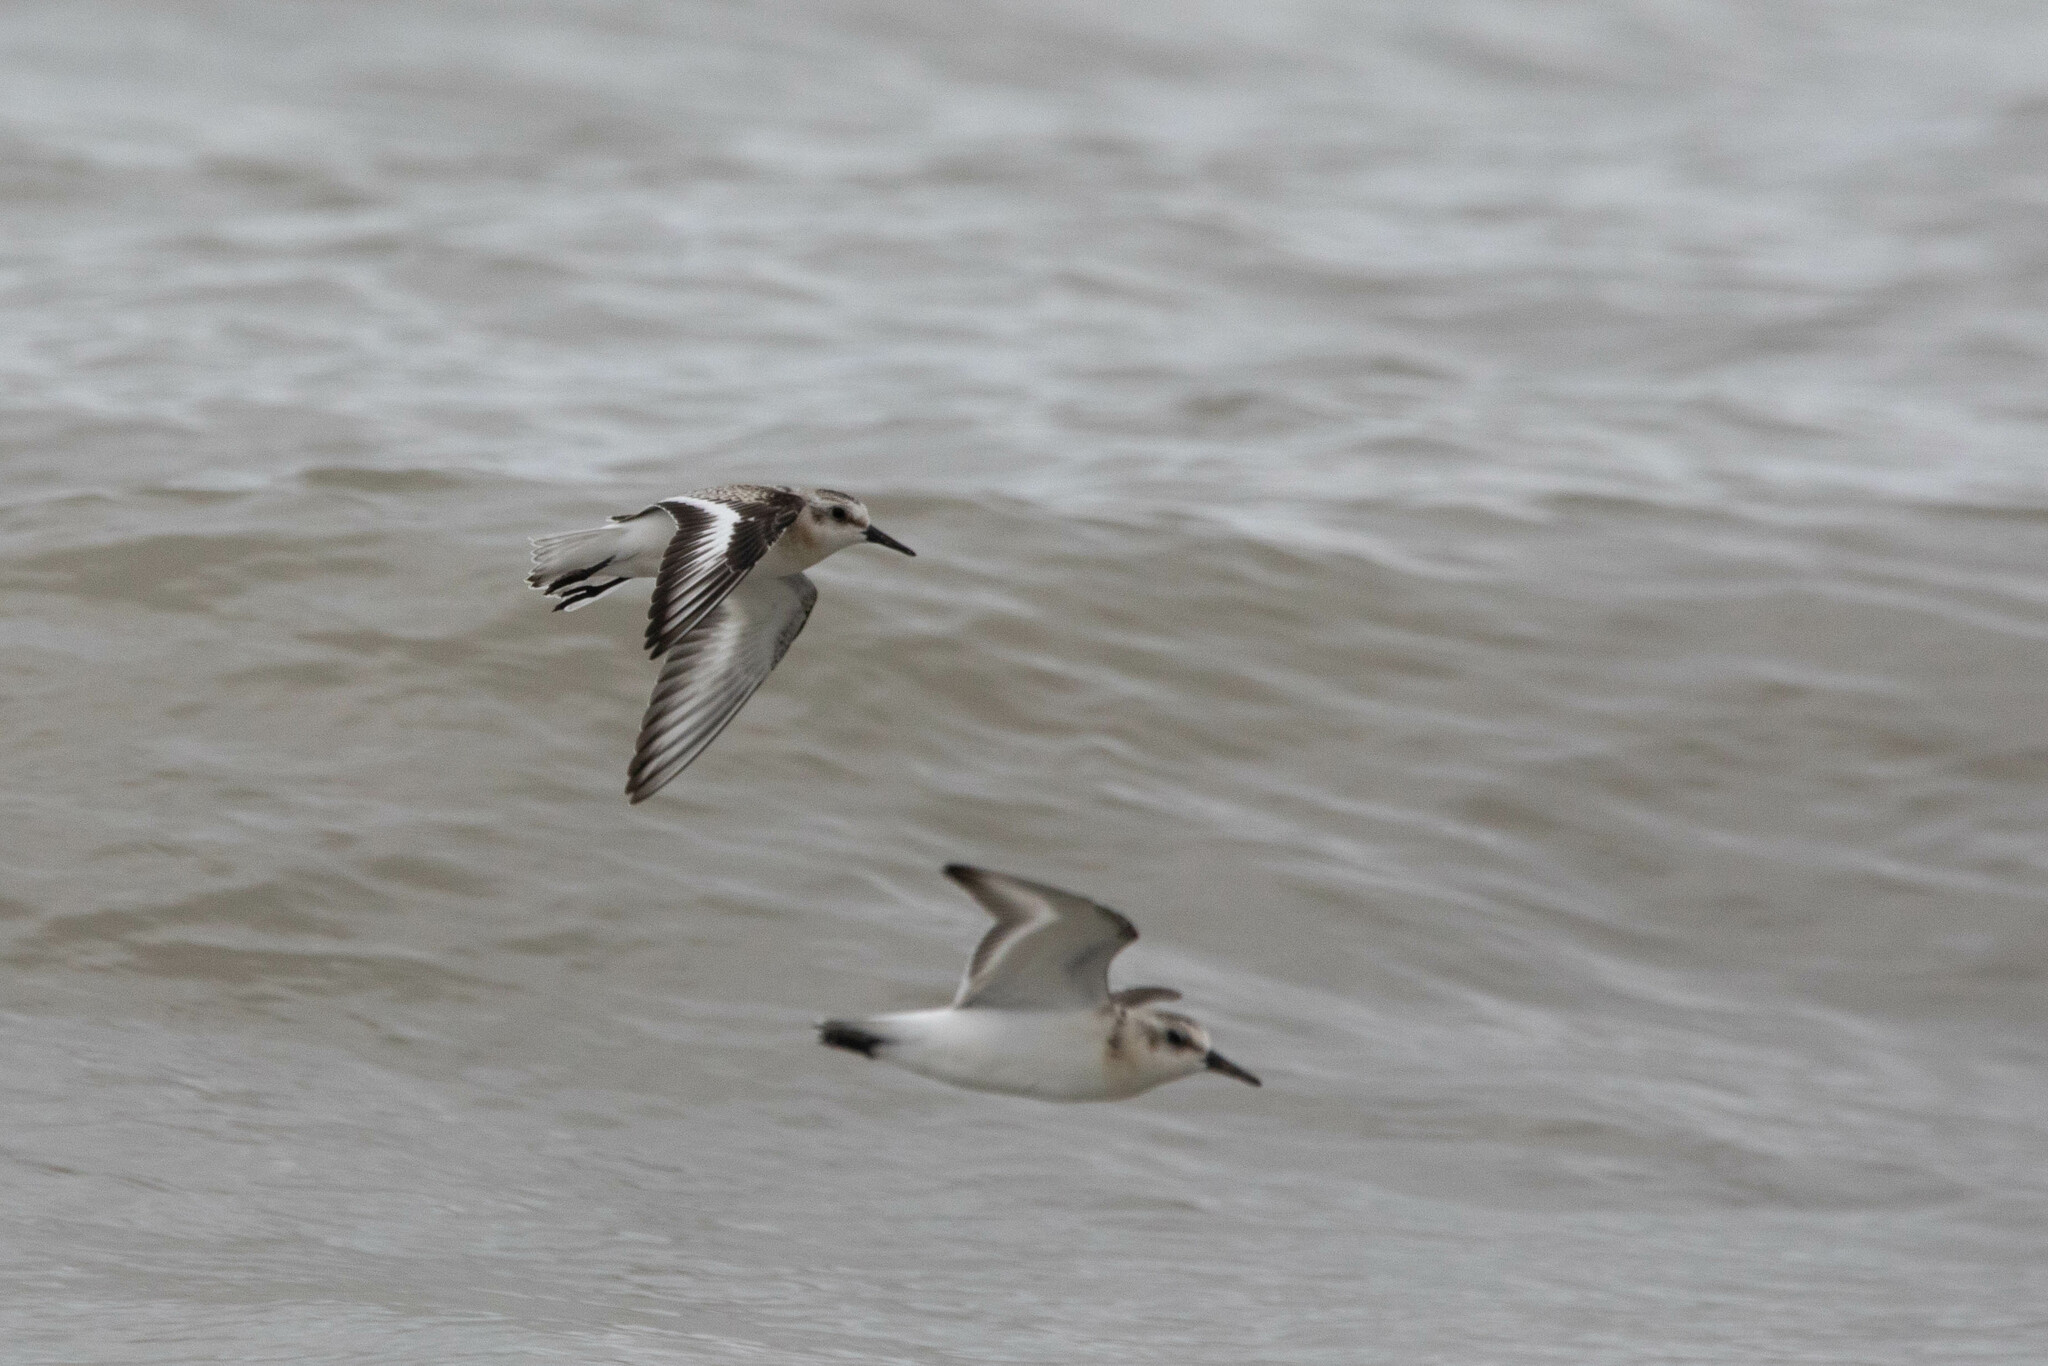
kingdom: Animalia
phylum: Chordata
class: Aves
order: Charadriiformes
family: Scolopacidae
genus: Calidris
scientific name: Calidris alba
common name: Sanderling
